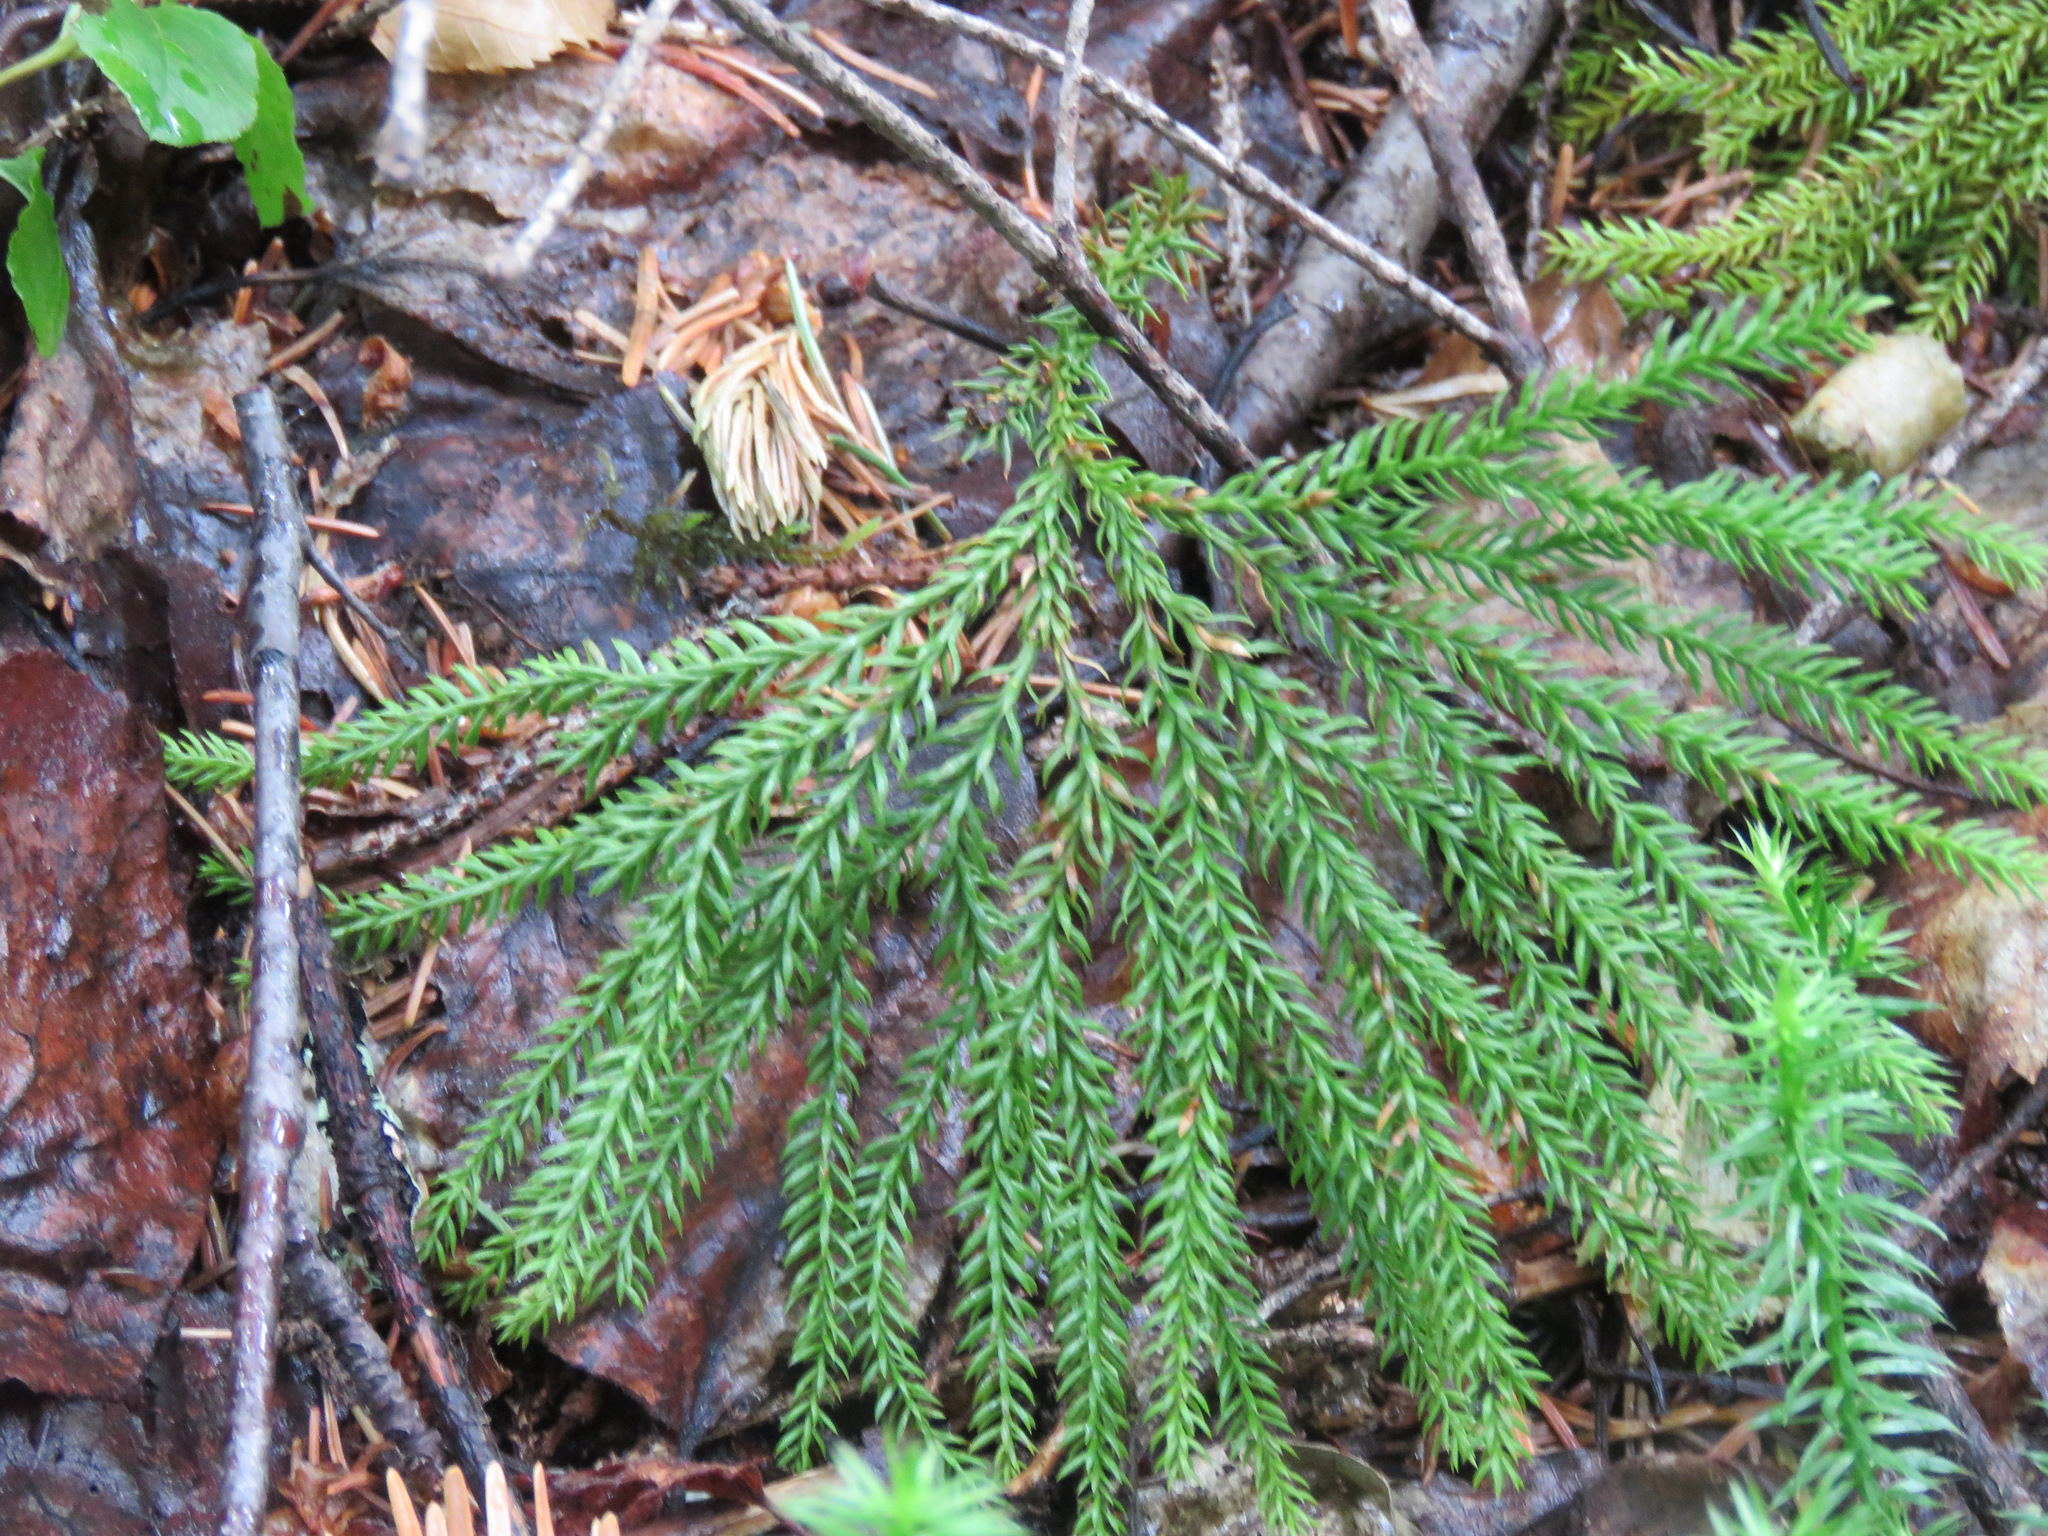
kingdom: Plantae
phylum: Tracheophyta
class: Lycopodiopsida
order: Lycopodiales
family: Lycopodiaceae
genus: Dendrolycopodium
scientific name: Dendrolycopodium dendroideum
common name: Northern tree-clubmoss
